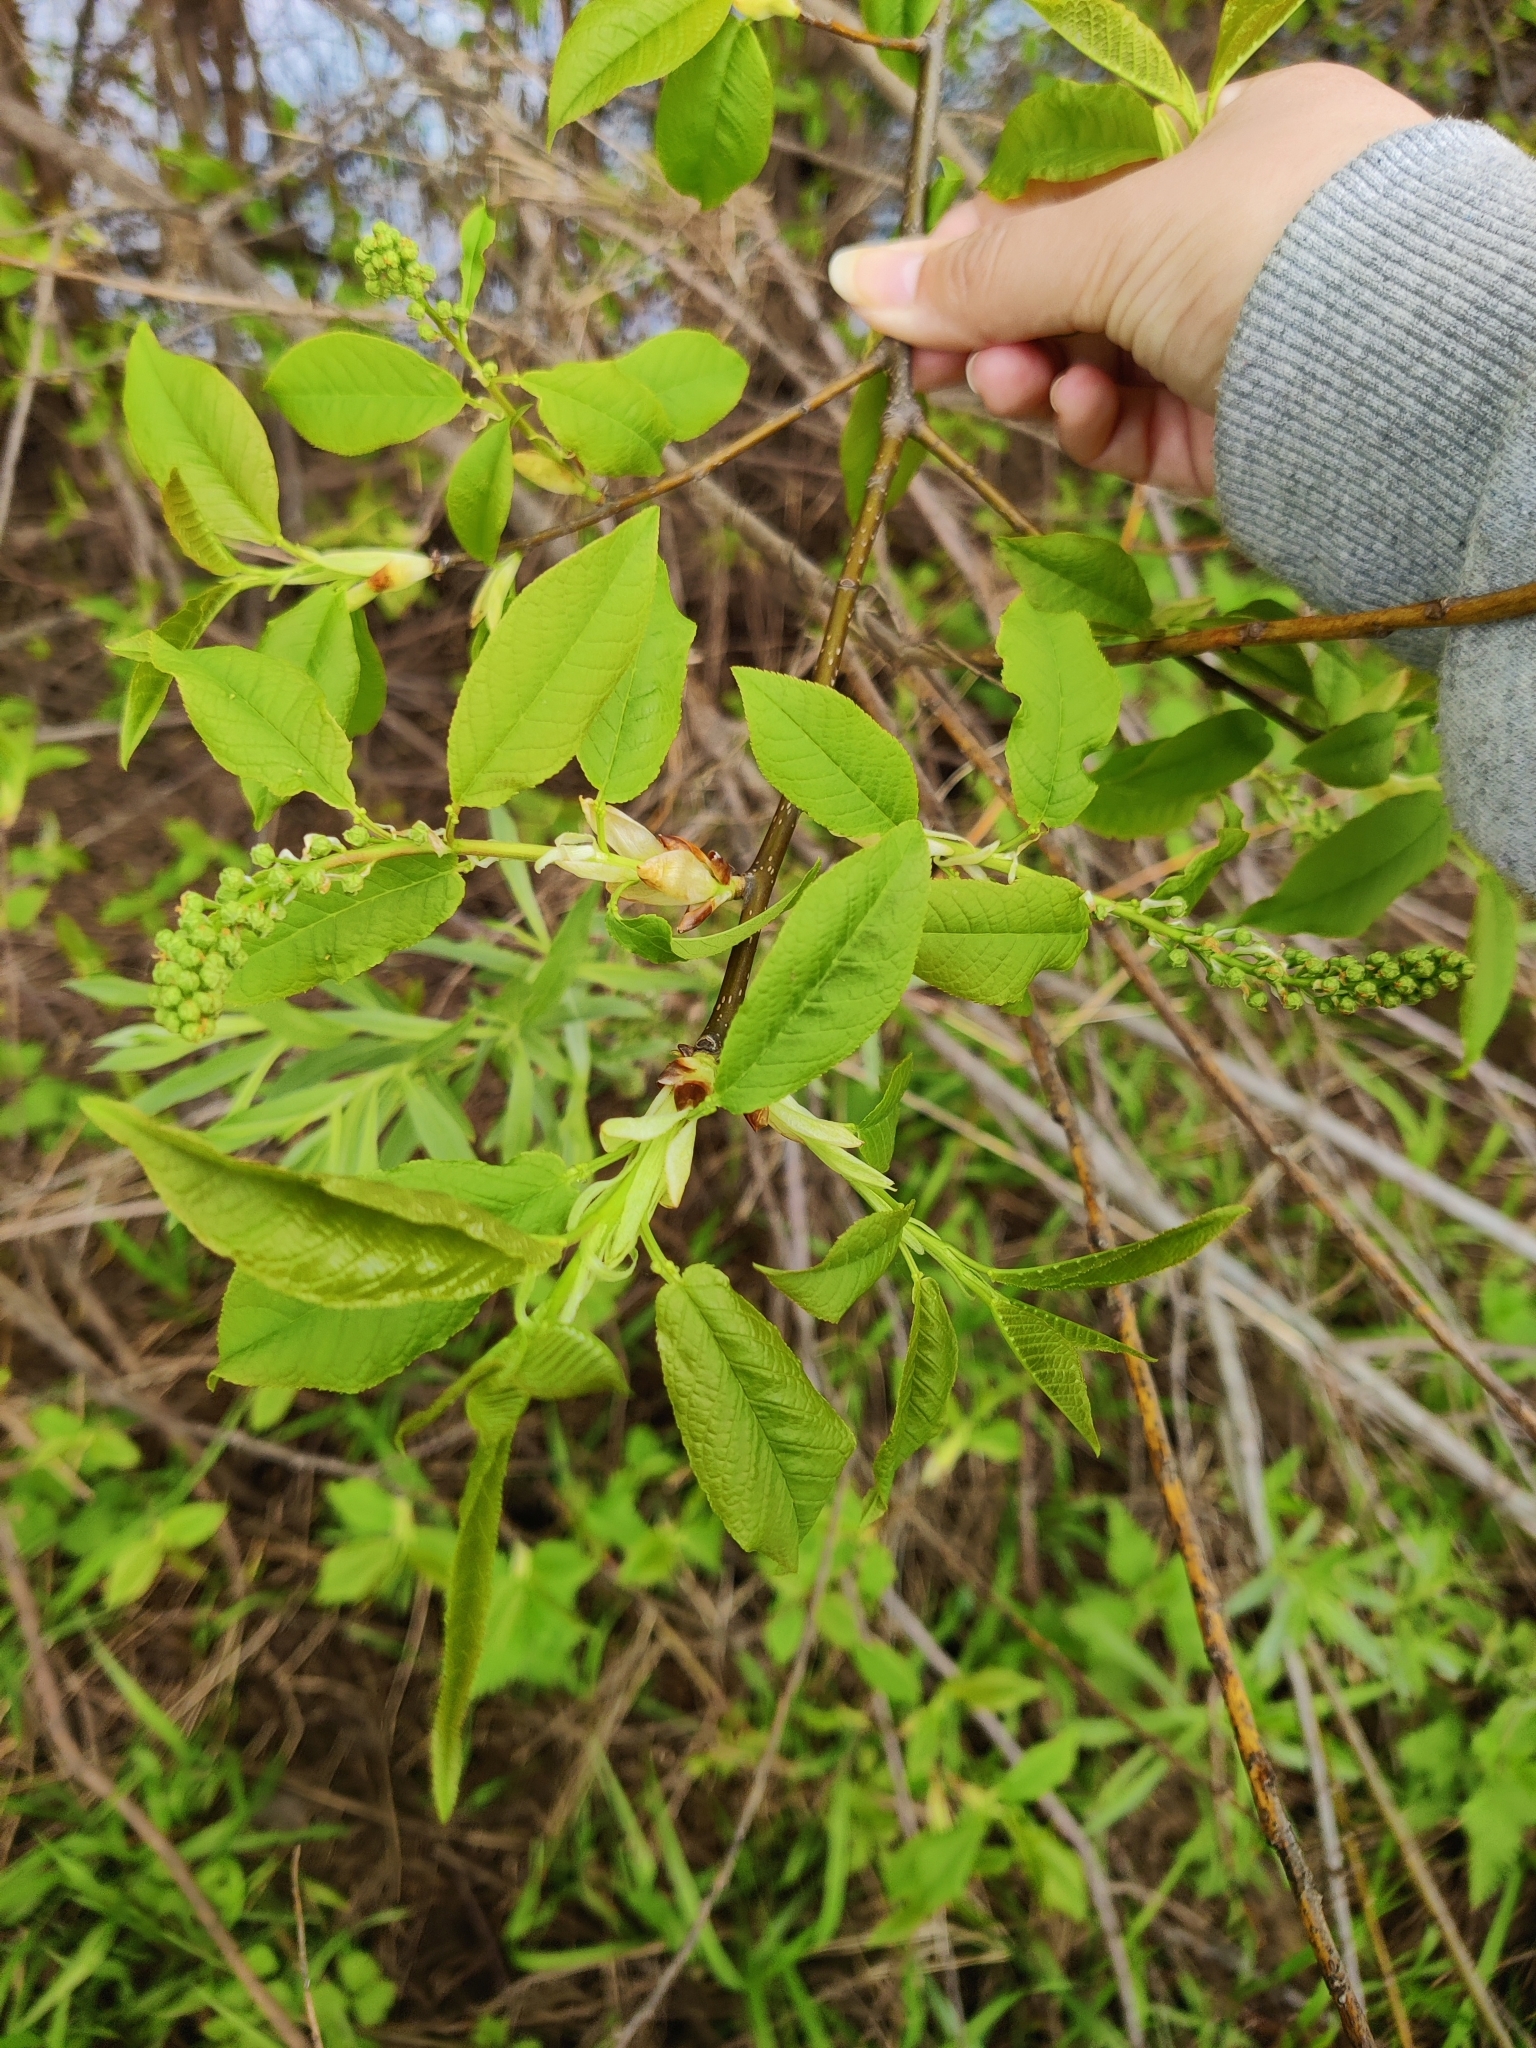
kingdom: Plantae
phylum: Tracheophyta
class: Magnoliopsida
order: Rosales
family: Rosaceae
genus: Prunus
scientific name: Prunus padus
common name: Bird cherry
